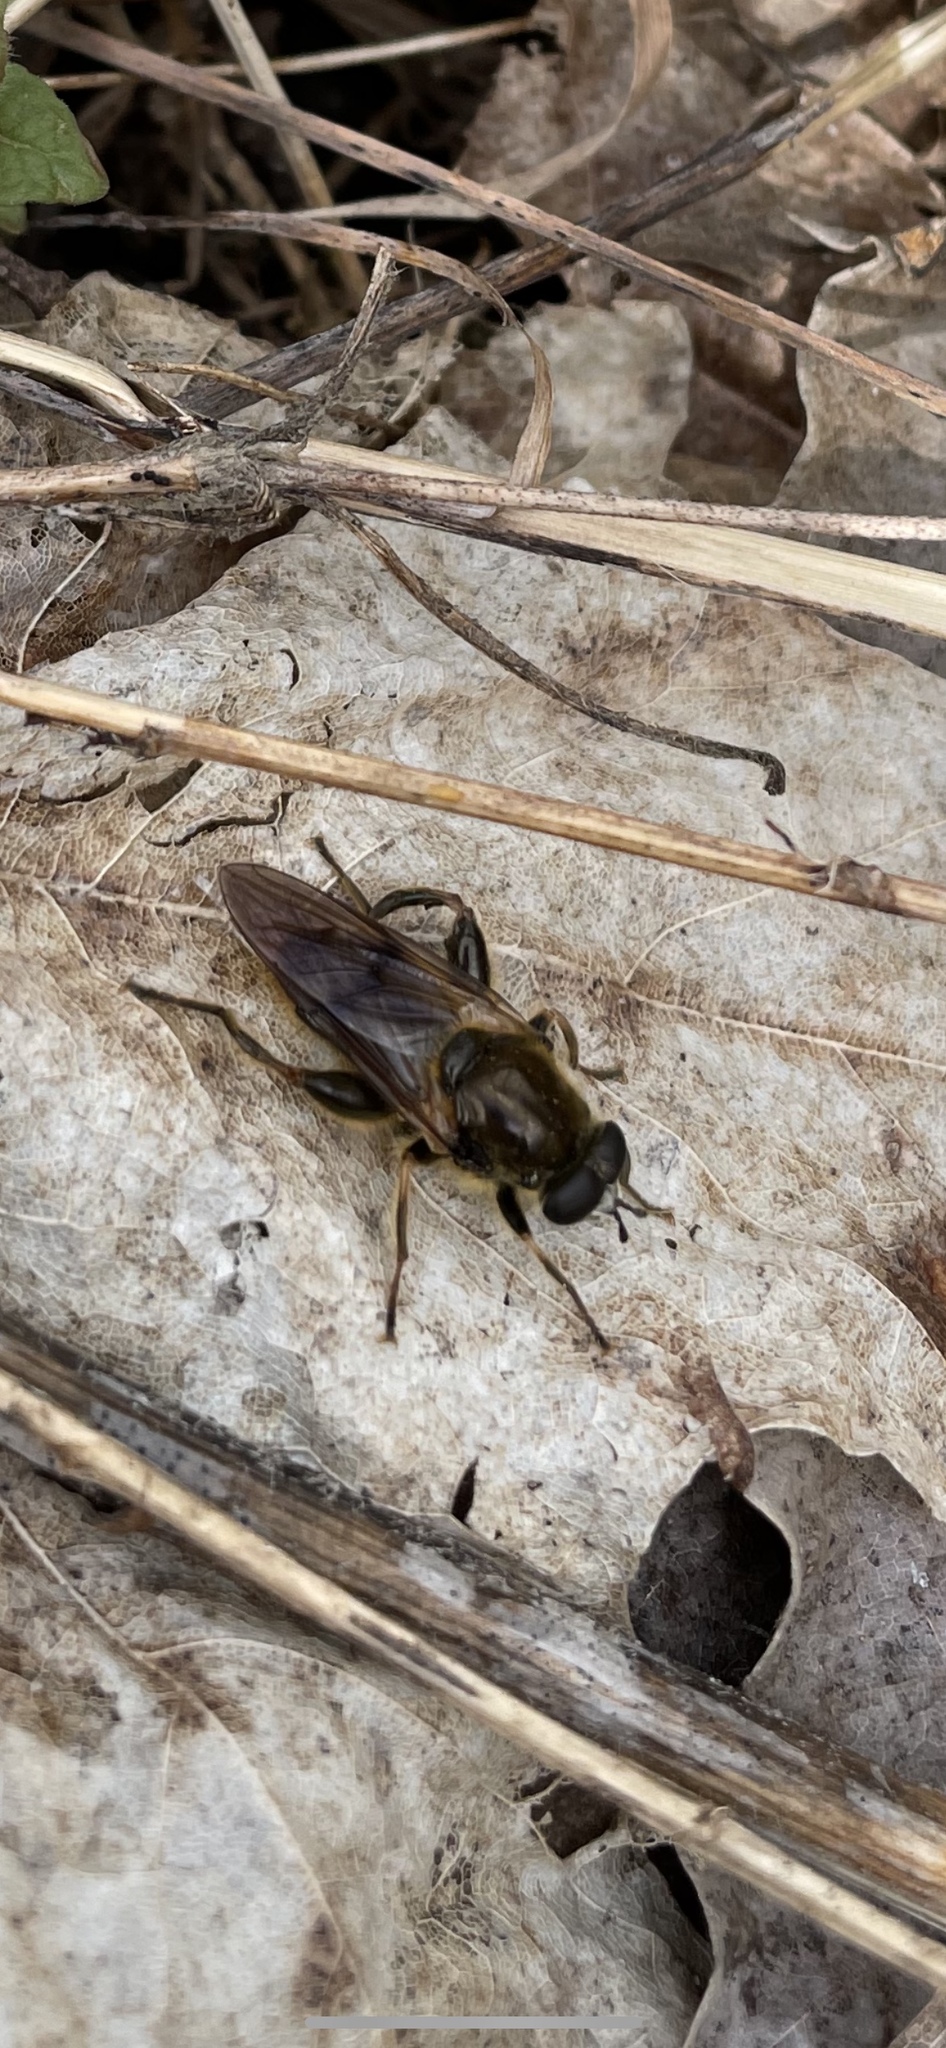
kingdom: Animalia
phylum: Arthropoda
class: Insecta
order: Diptera
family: Syrphidae
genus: Brachypalpus
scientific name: Brachypalpus oarus
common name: Eastern catkin fly
